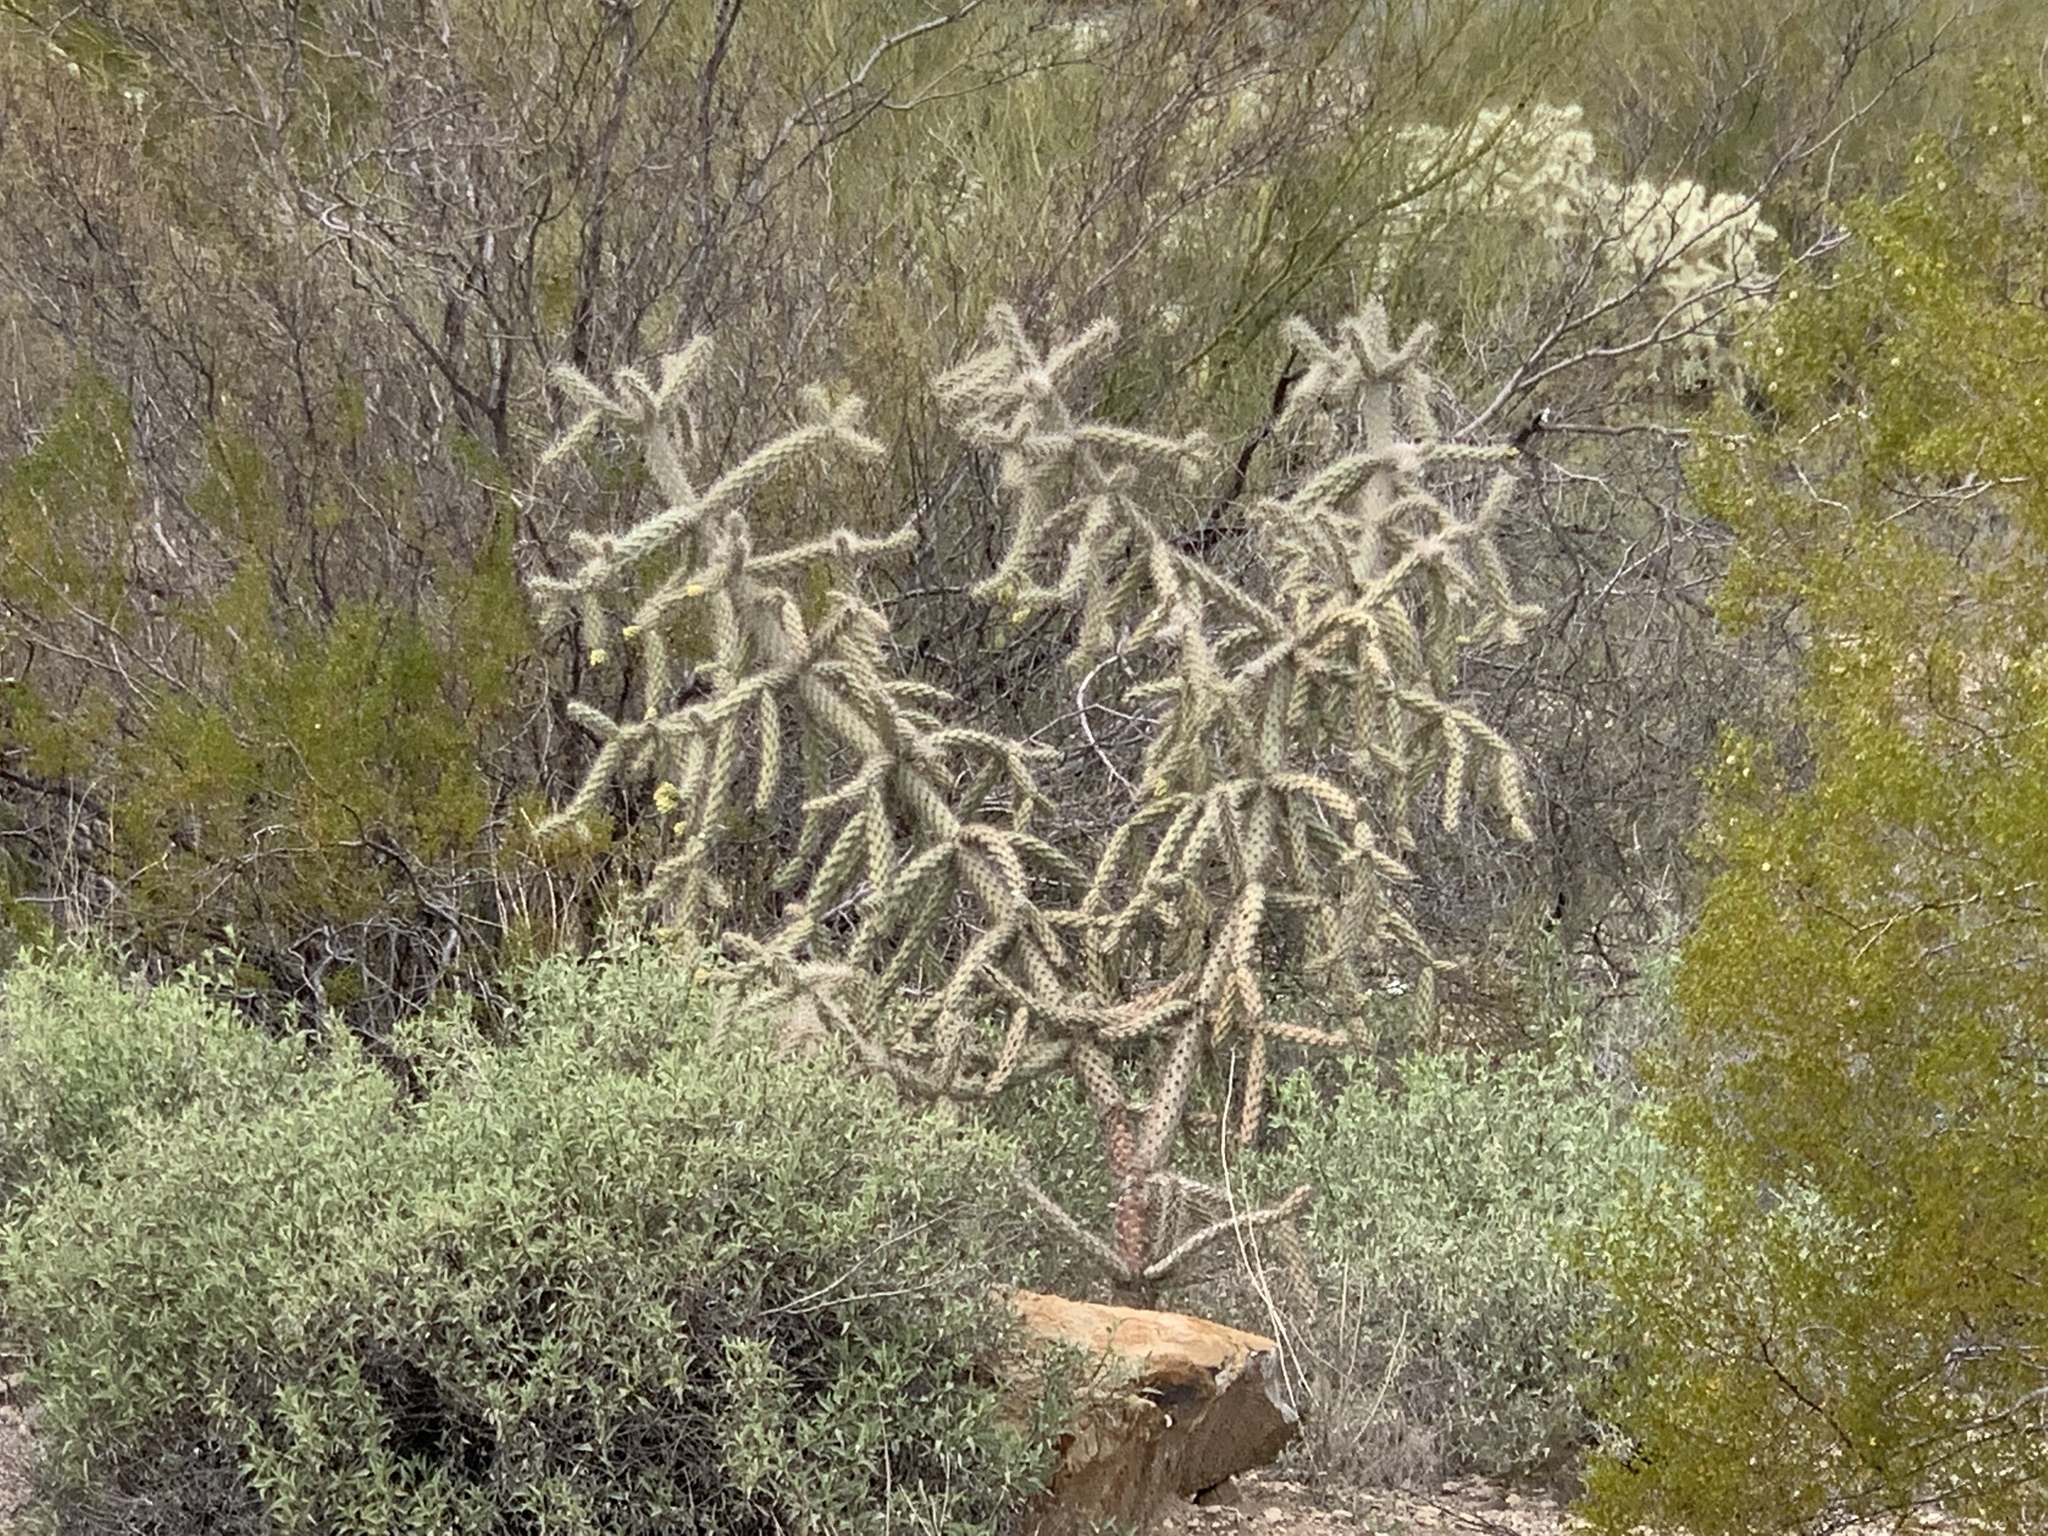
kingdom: Plantae
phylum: Tracheophyta
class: Magnoliopsida
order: Caryophyllales
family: Cactaceae
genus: Cylindropuntia
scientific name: Cylindropuntia imbricata
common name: Candelabrum cactus
